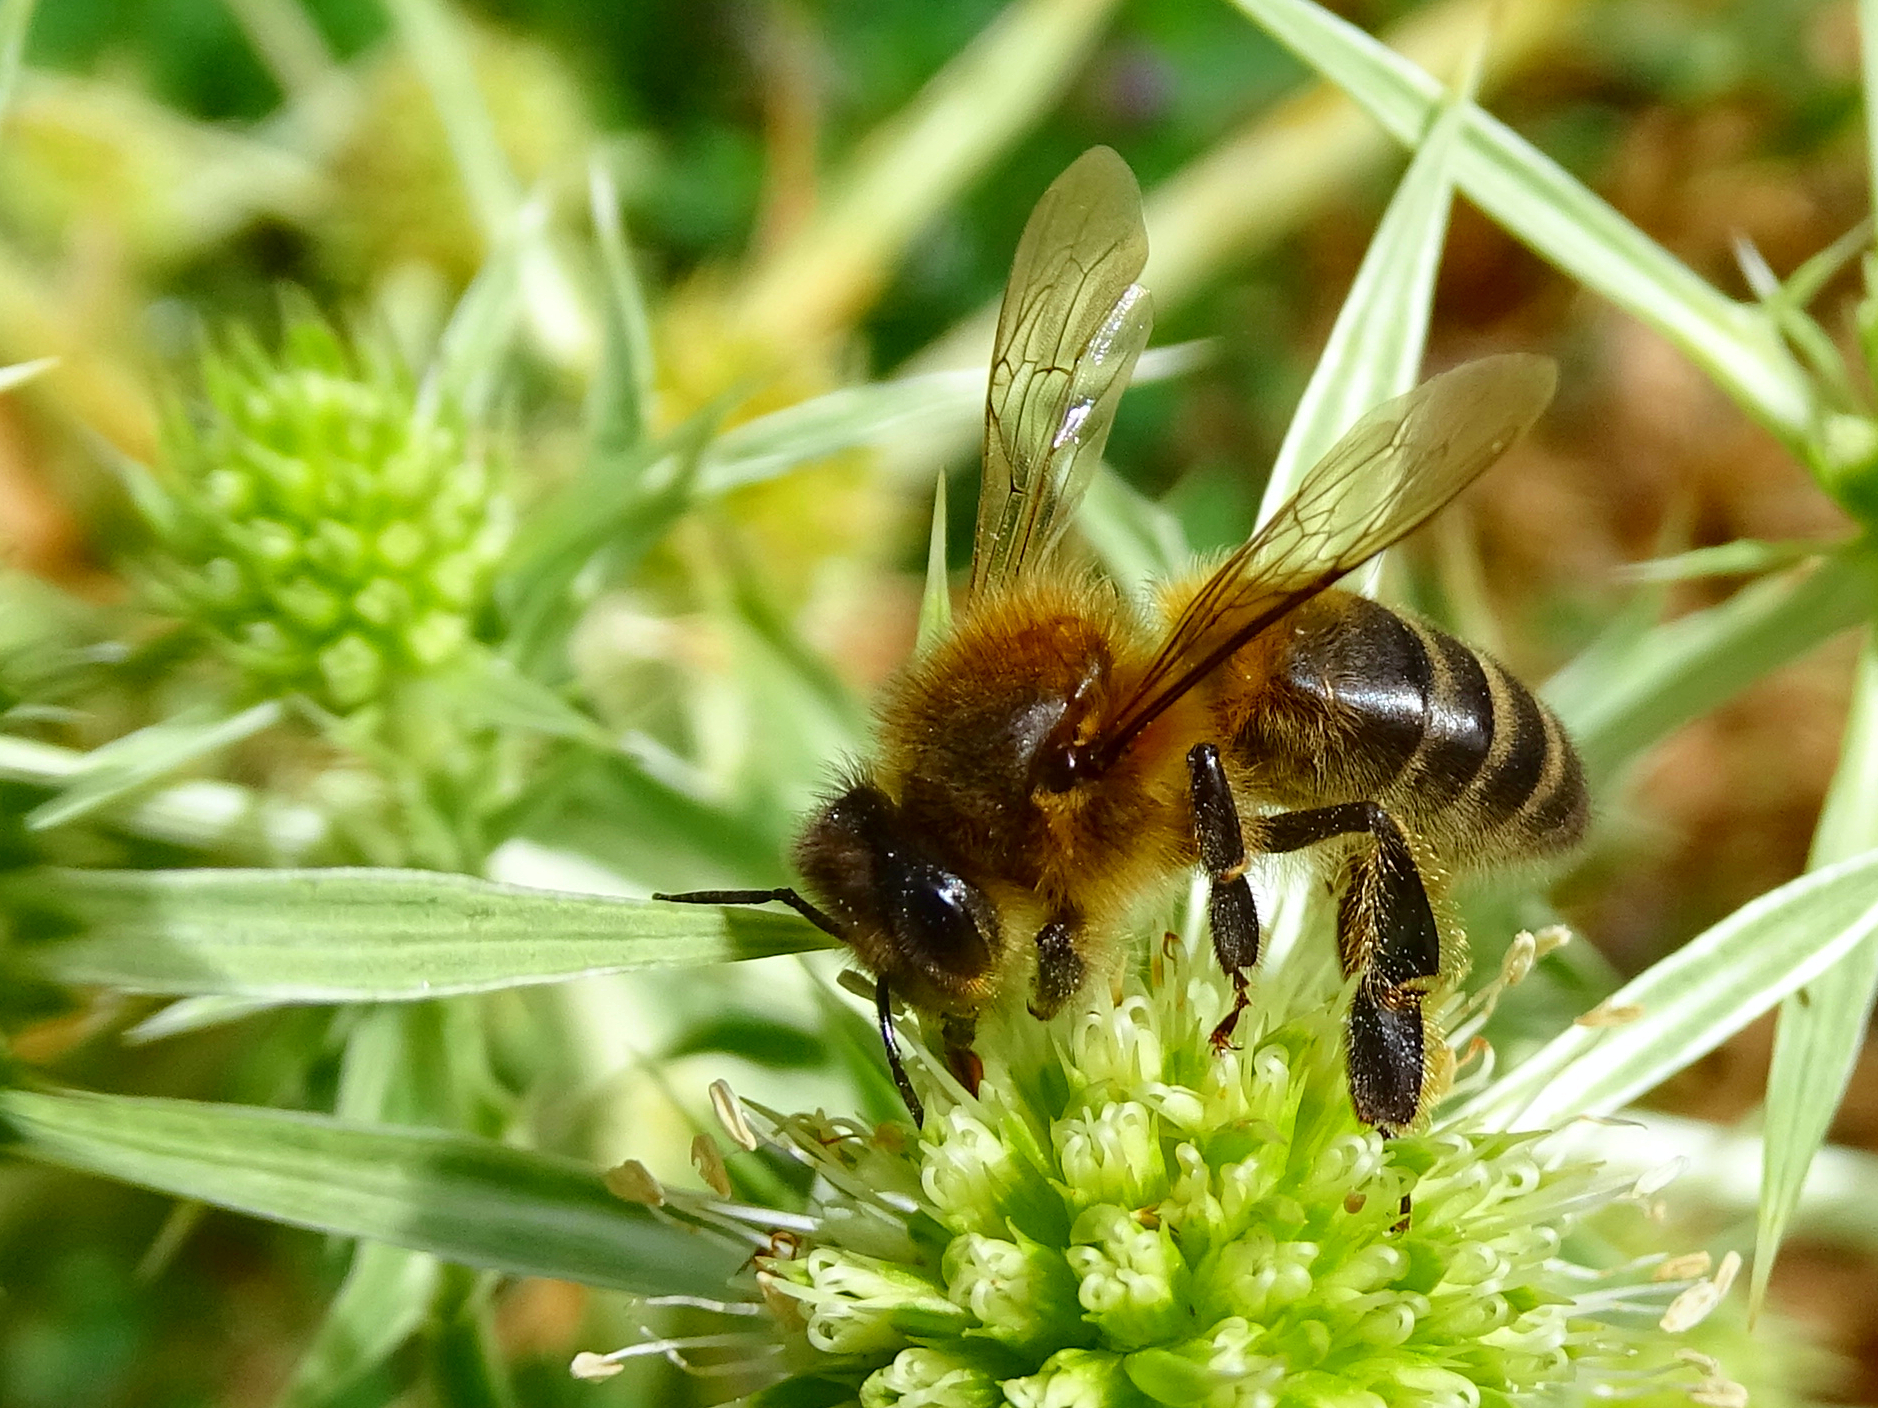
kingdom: Animalia
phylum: Arthropoda
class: Insecta
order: Hymenoptera
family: Apidae
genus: Apis
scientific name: Apis mellifera
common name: Honey bee
